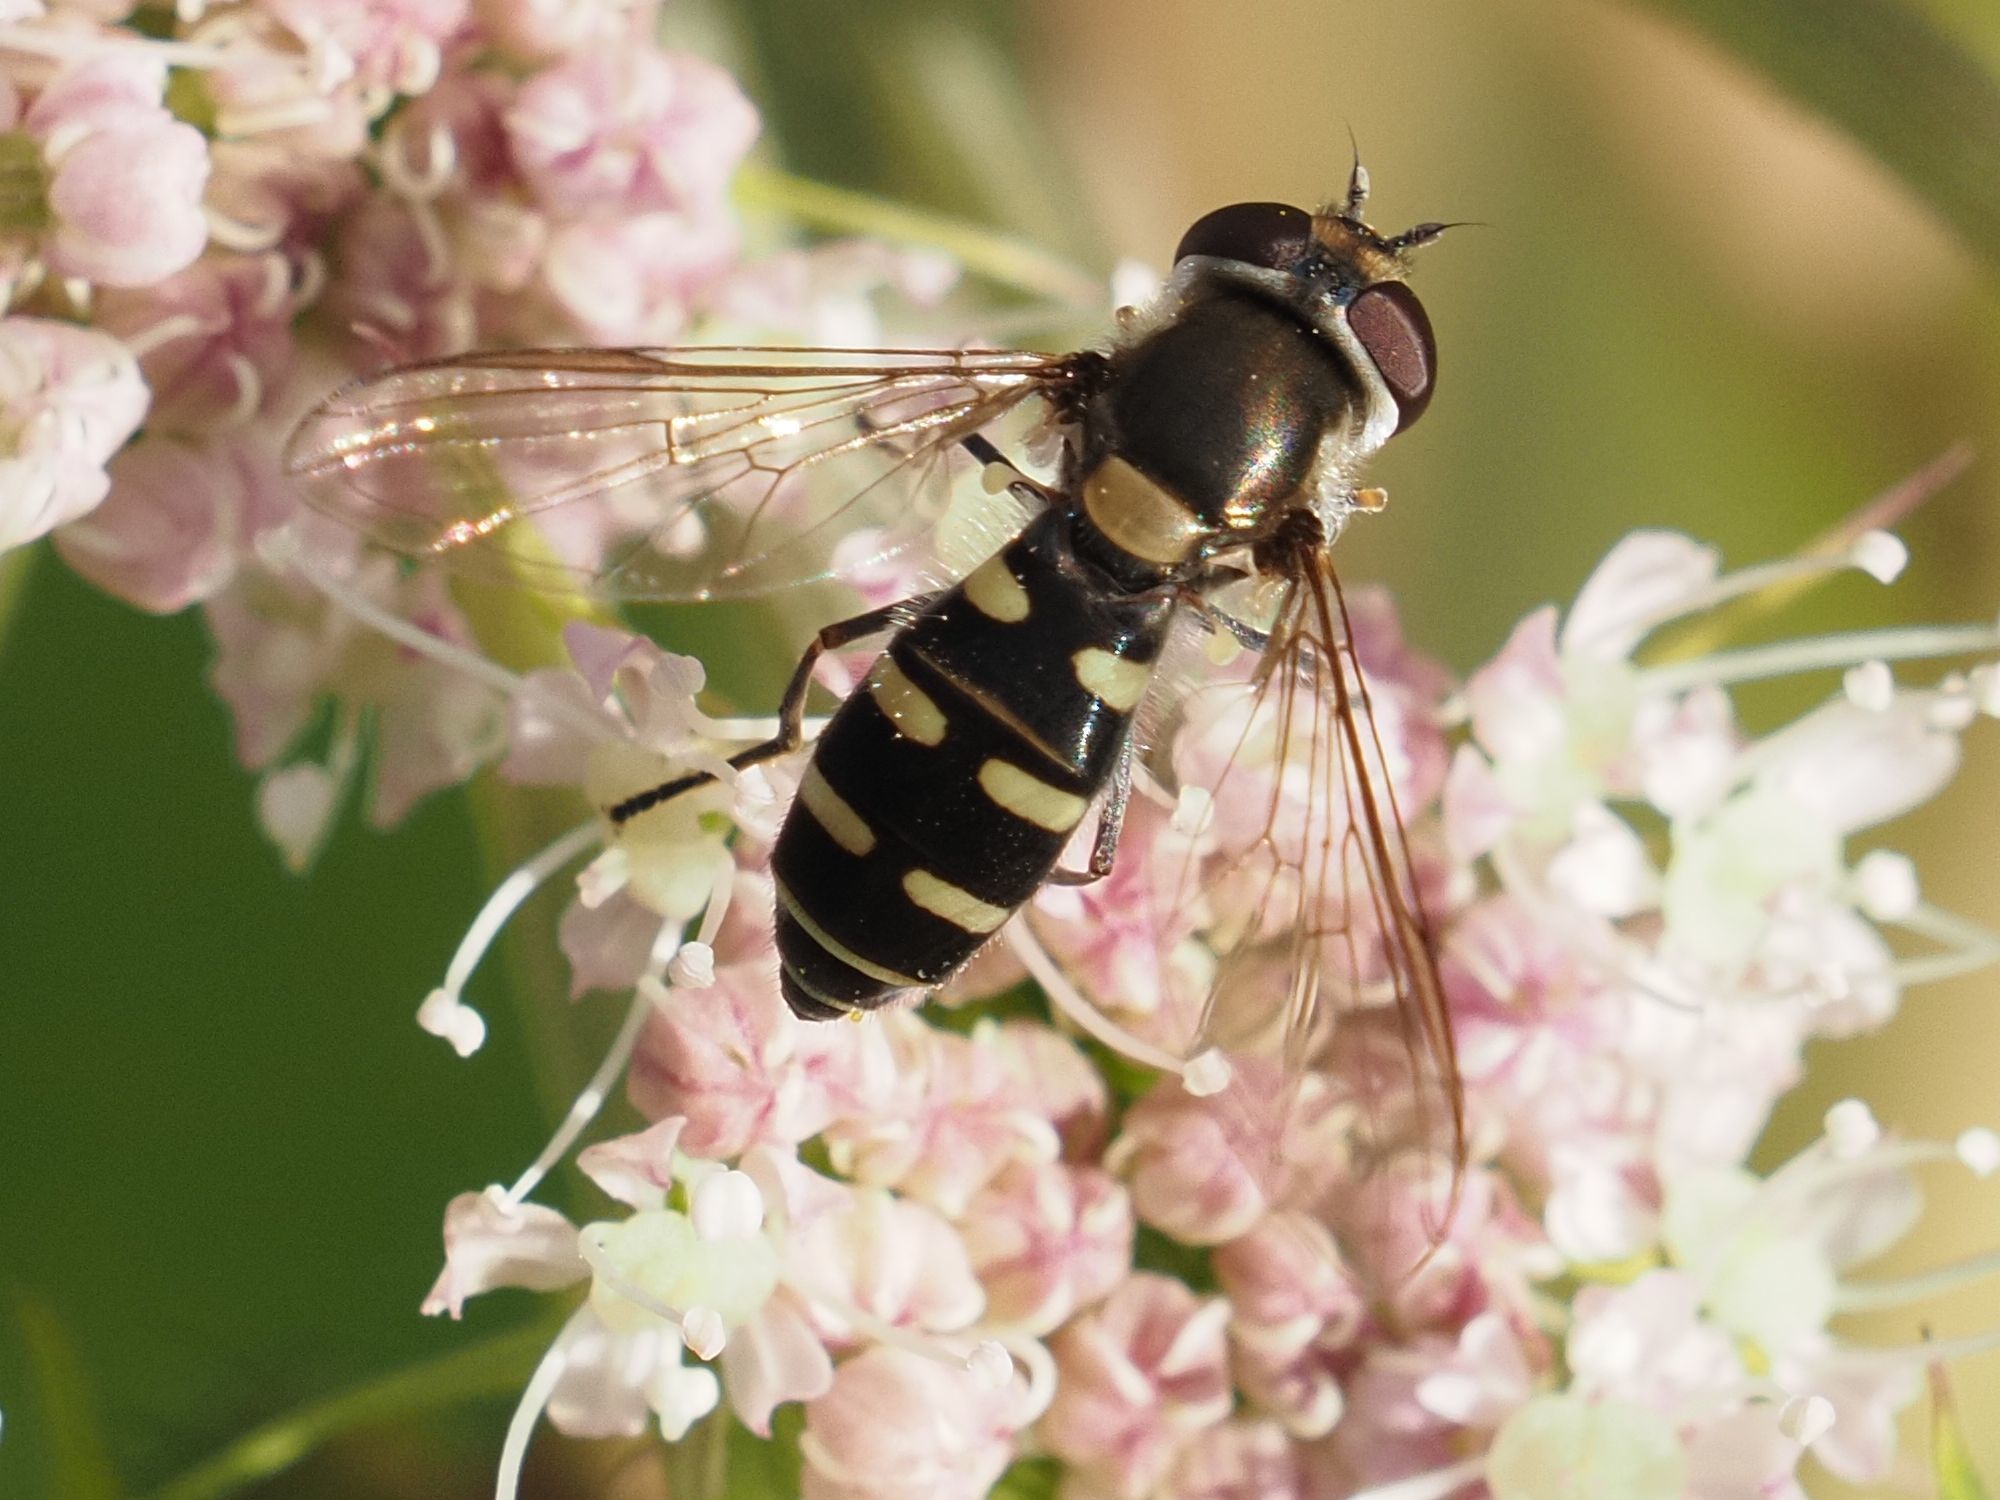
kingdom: Animalia
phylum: Arthropoda
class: Insecta
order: Diptera
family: Syrphidae
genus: Melangyna
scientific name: Melangyna umbellatarum
